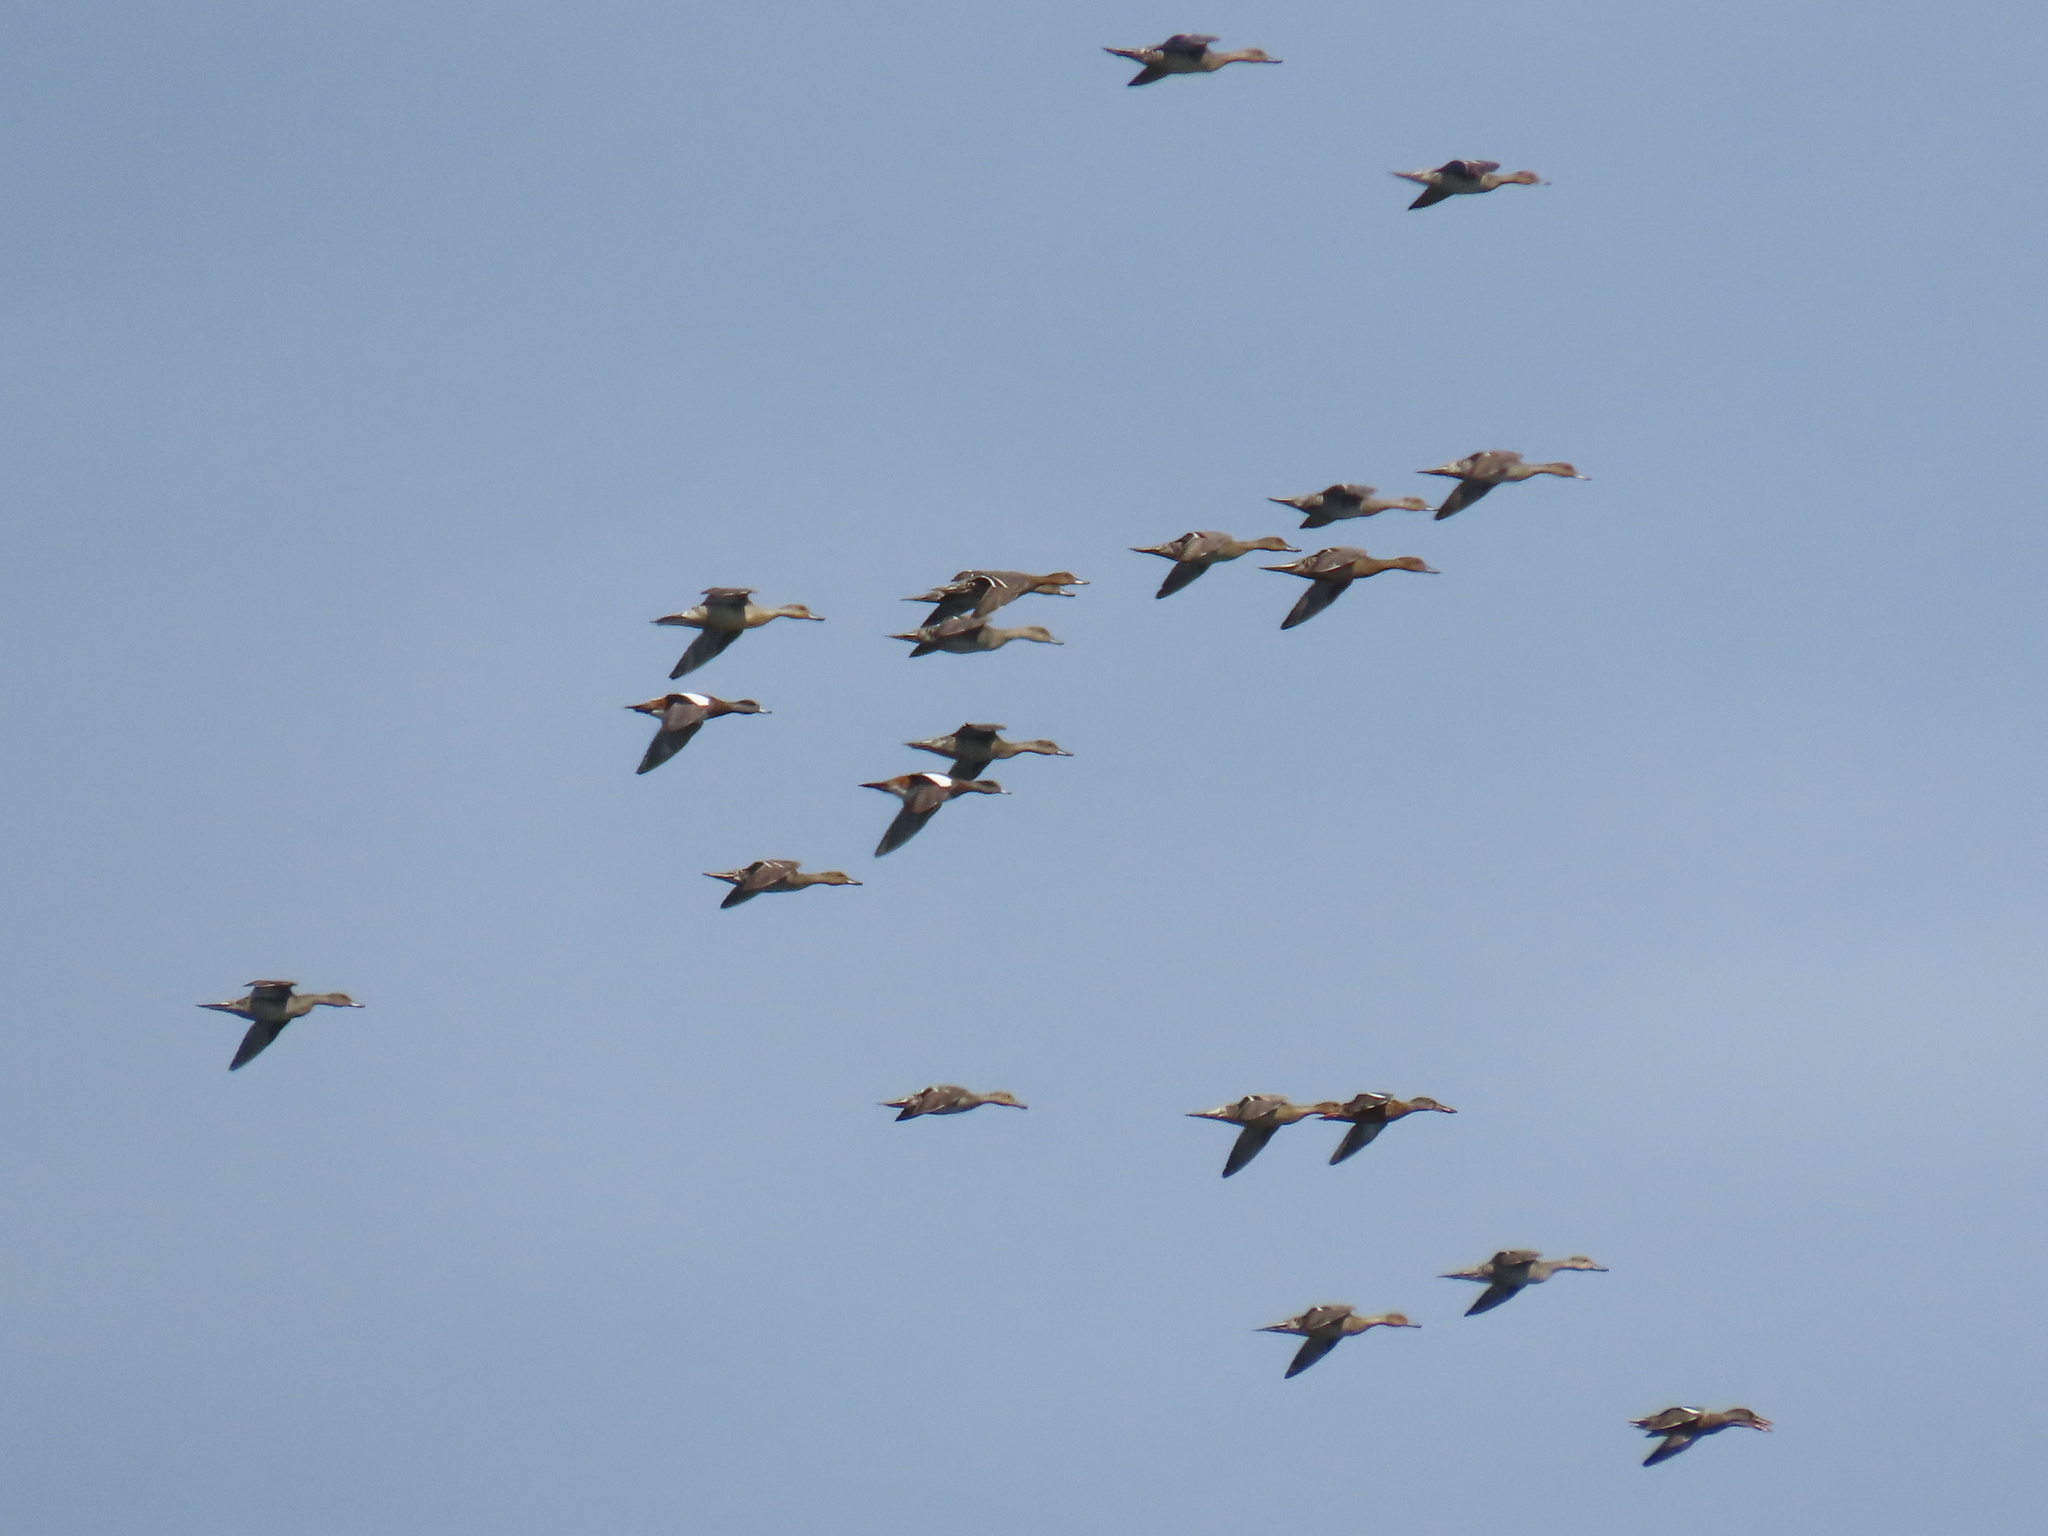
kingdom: Animalia
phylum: Chordata
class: Aves
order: Anseriformes
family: Anatidae
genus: Mareca
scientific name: Mareca americana
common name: American wigeon
